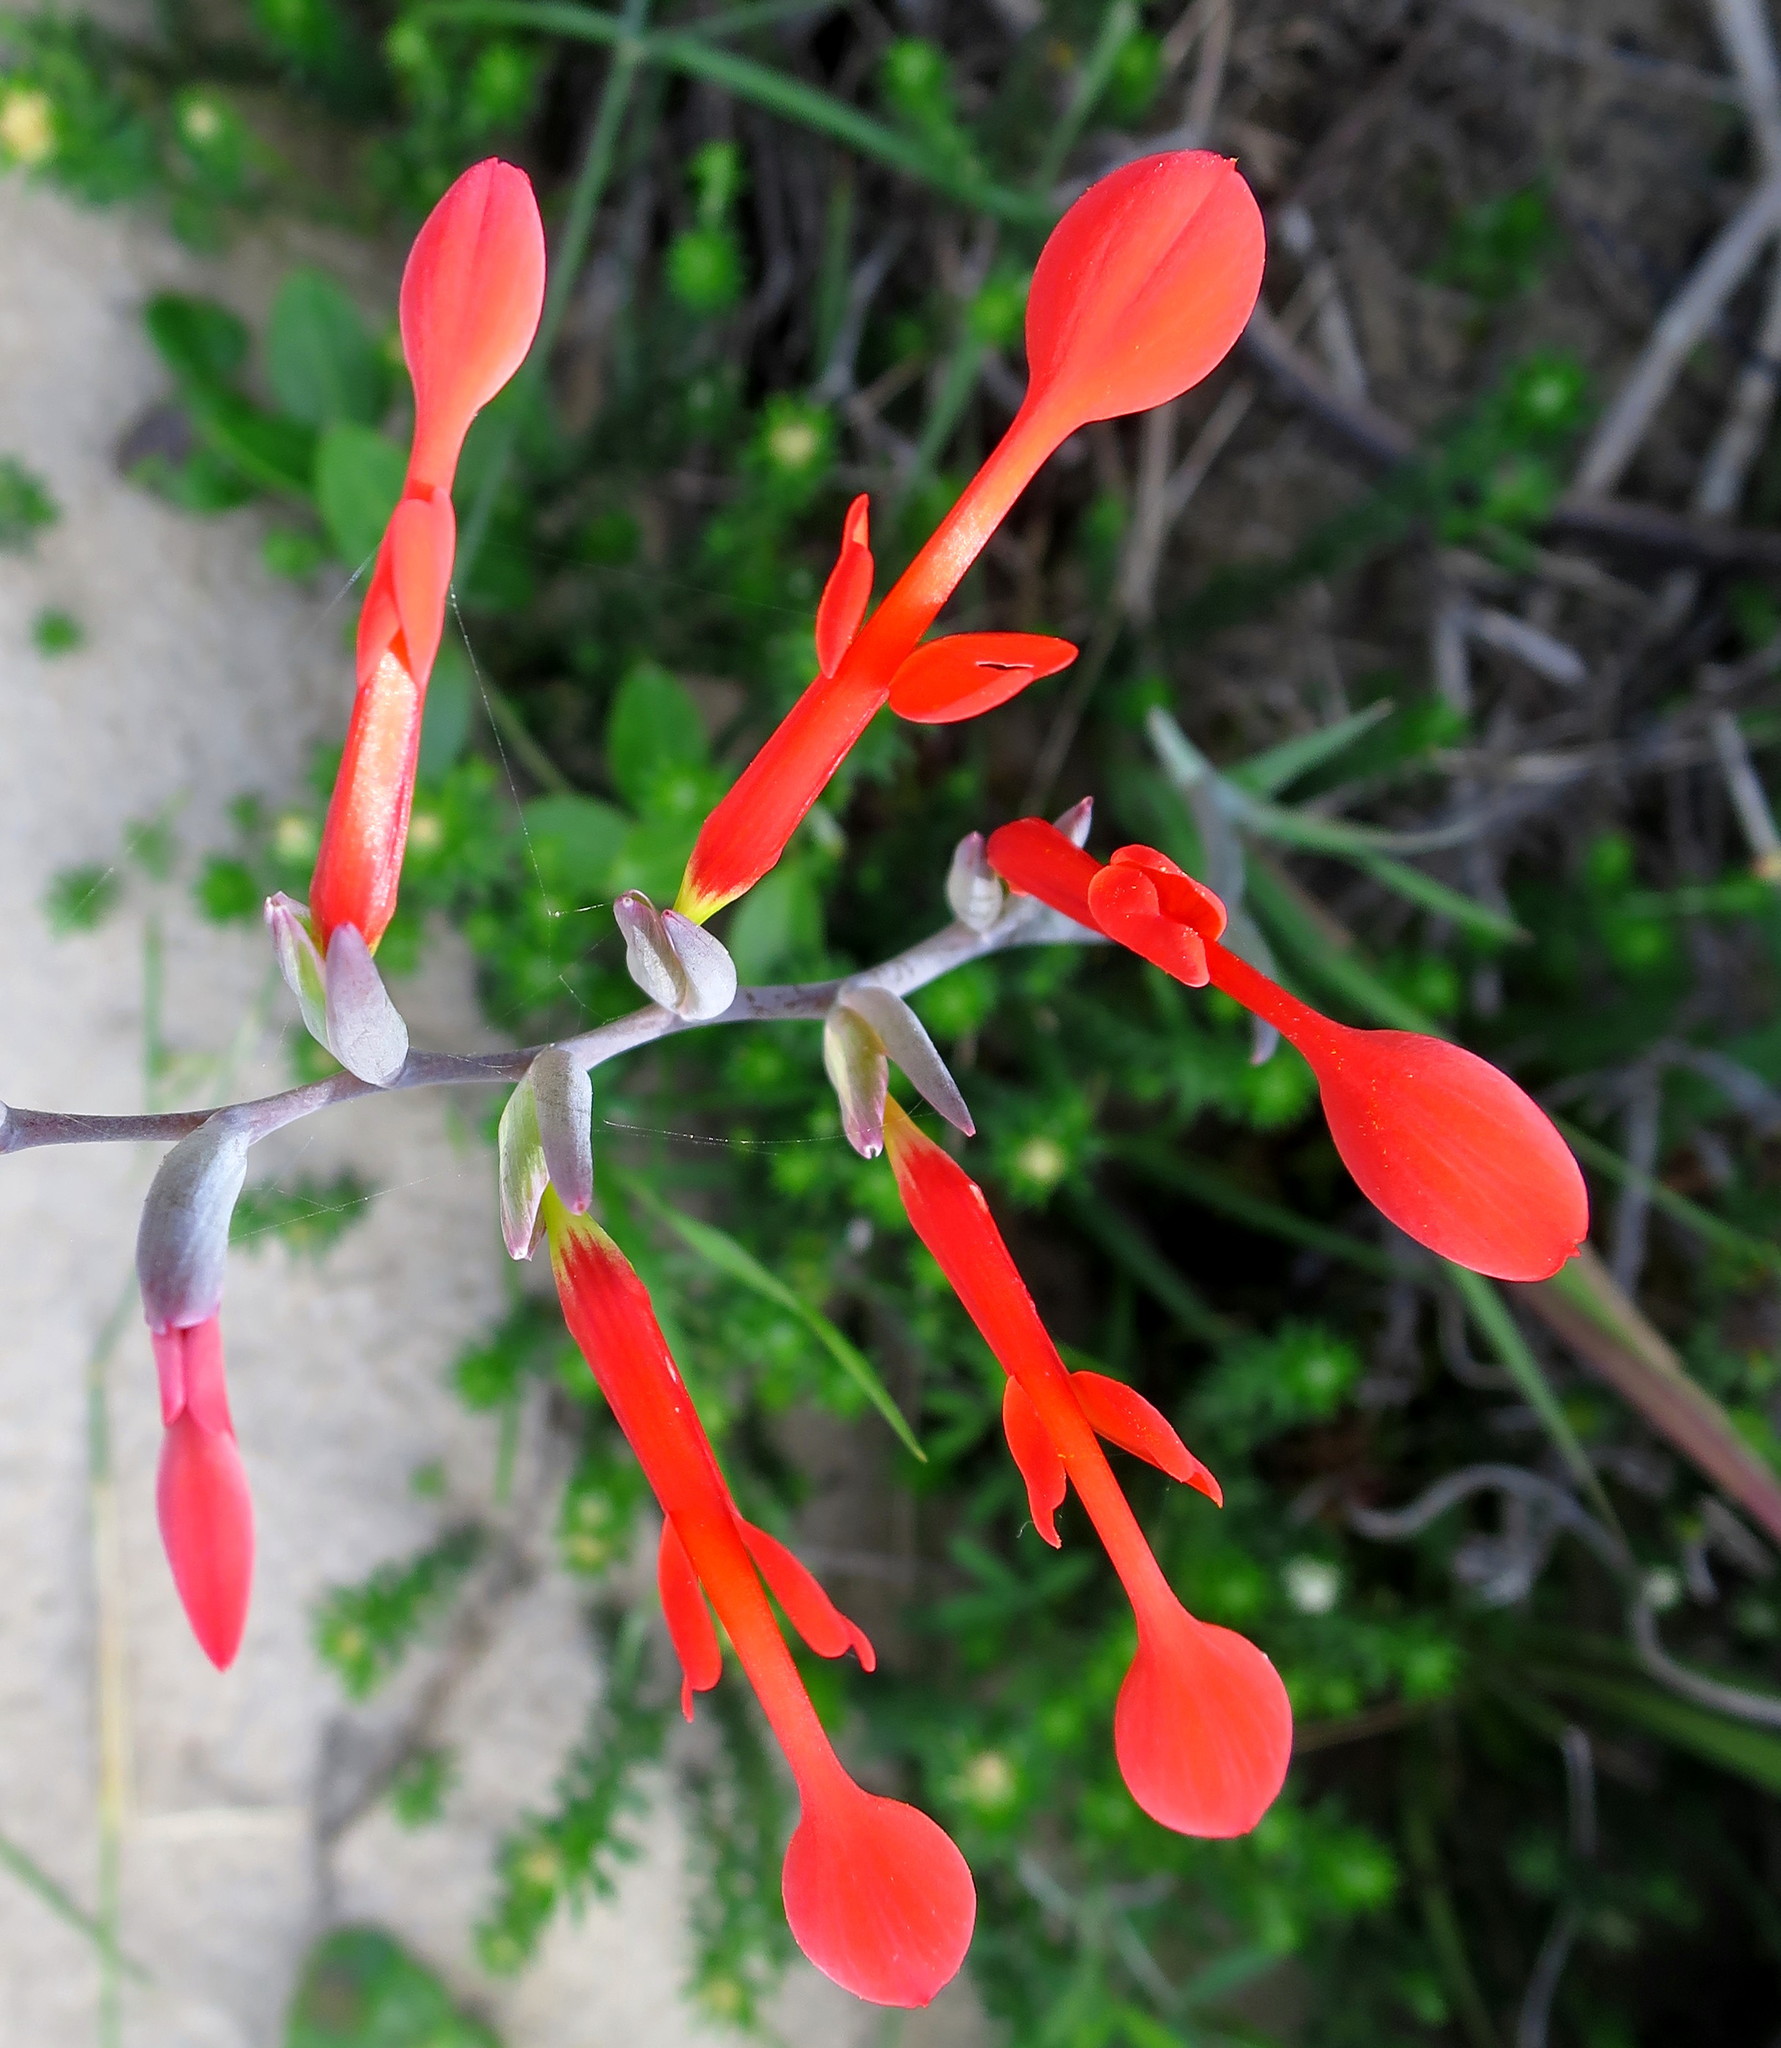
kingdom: Plantae
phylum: Tracheophyta
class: Liliopsida
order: Asparagales
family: Iridaceae
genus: Gladiolus
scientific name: Gladiolus cunonius
